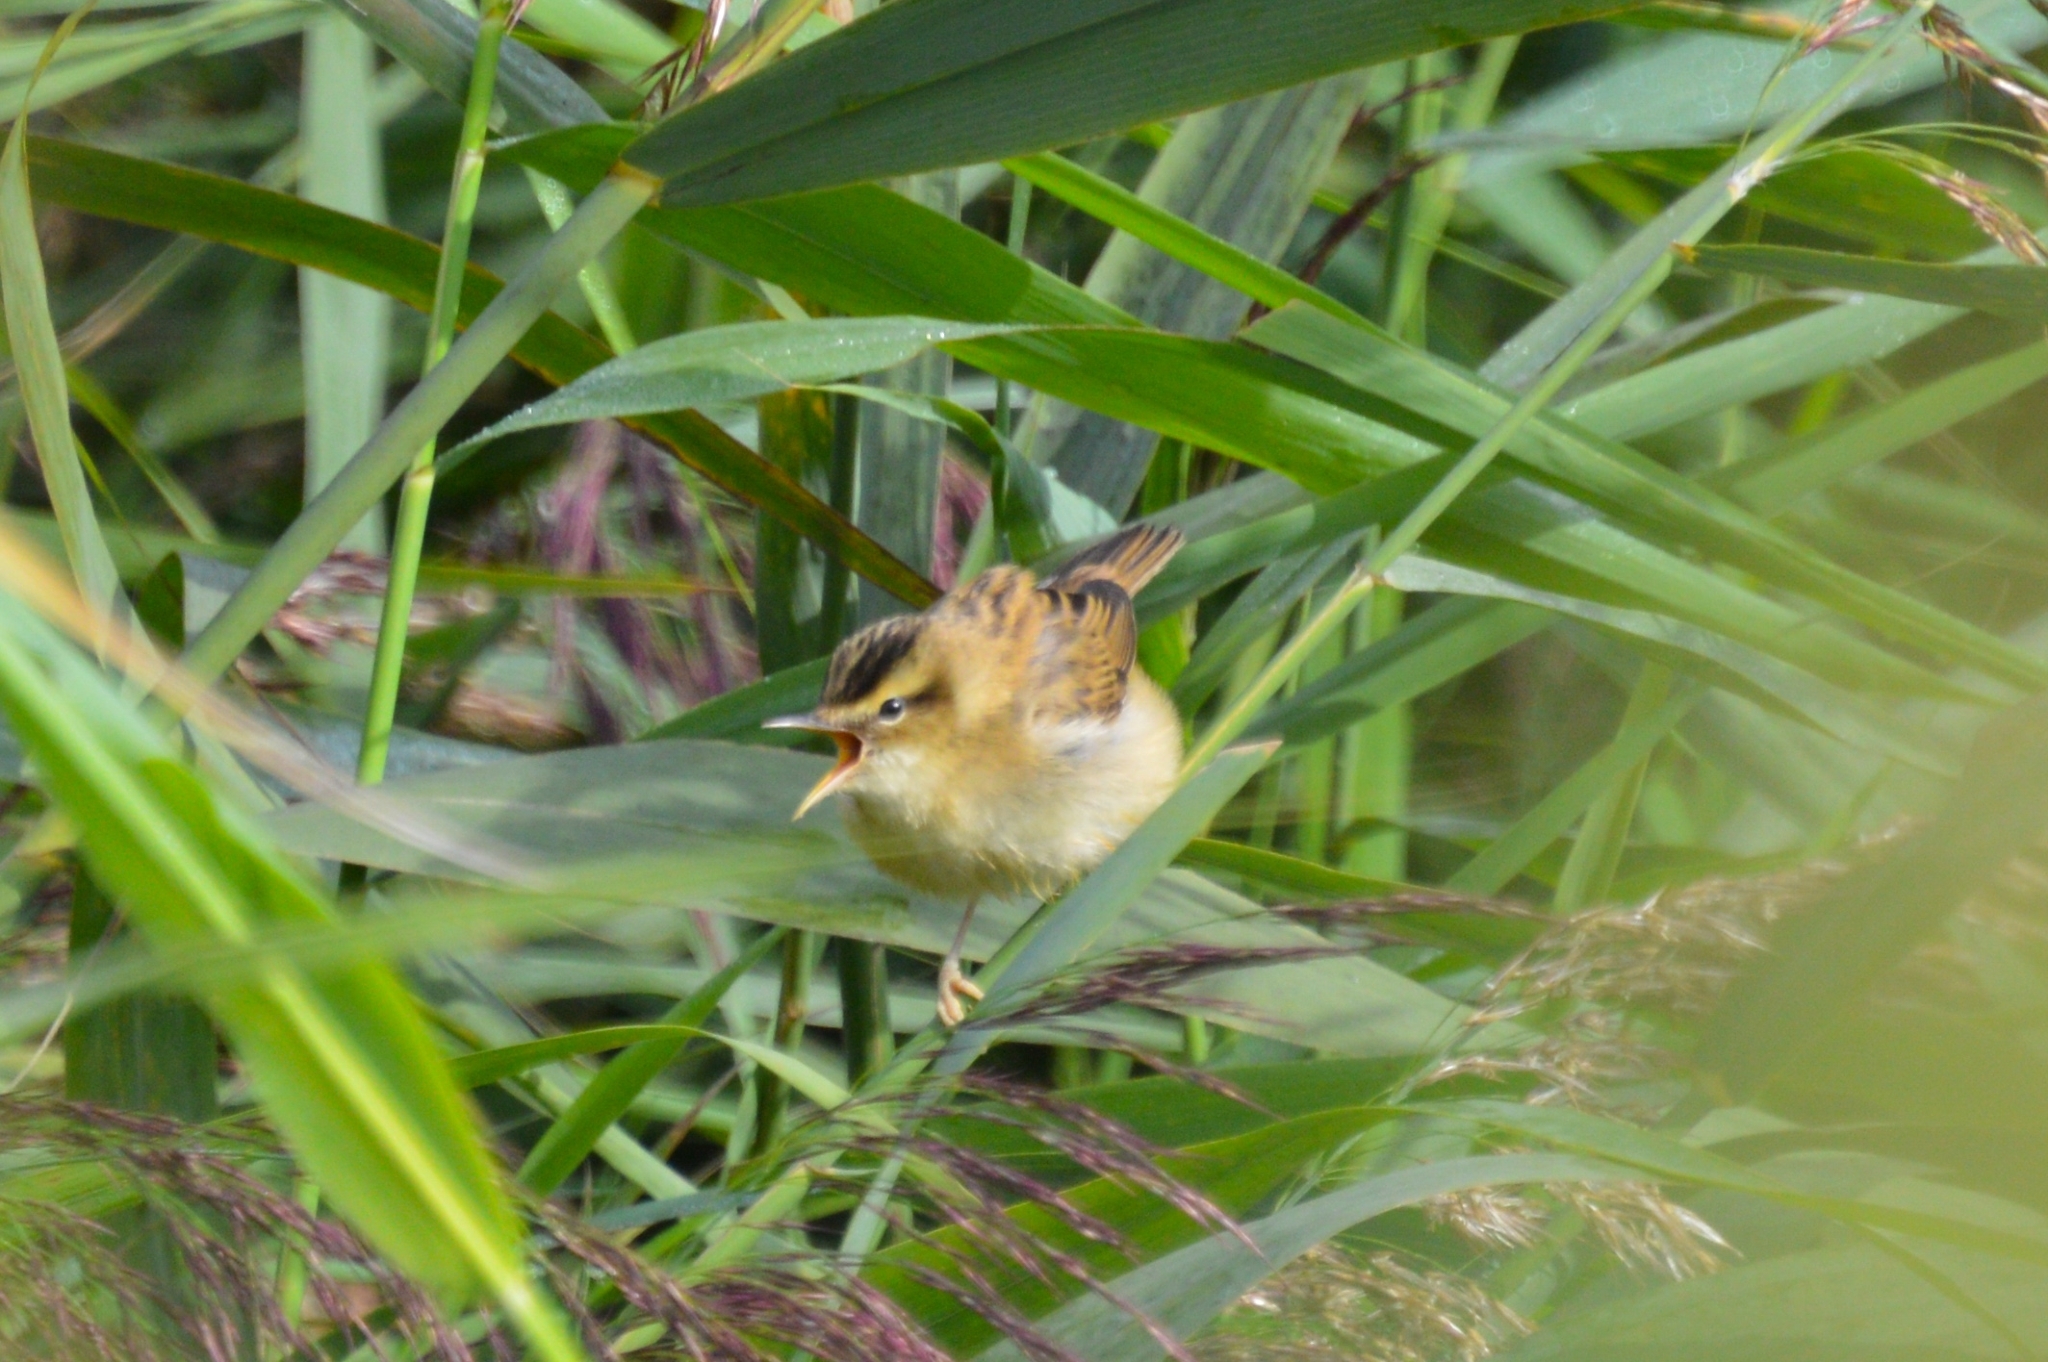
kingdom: Animalia
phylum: Chordata
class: Aves
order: Passeriformes
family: Acrocephalidae
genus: Acrocephalus
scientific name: Acrocephalus schoenobaenus
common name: Sedge warbler
